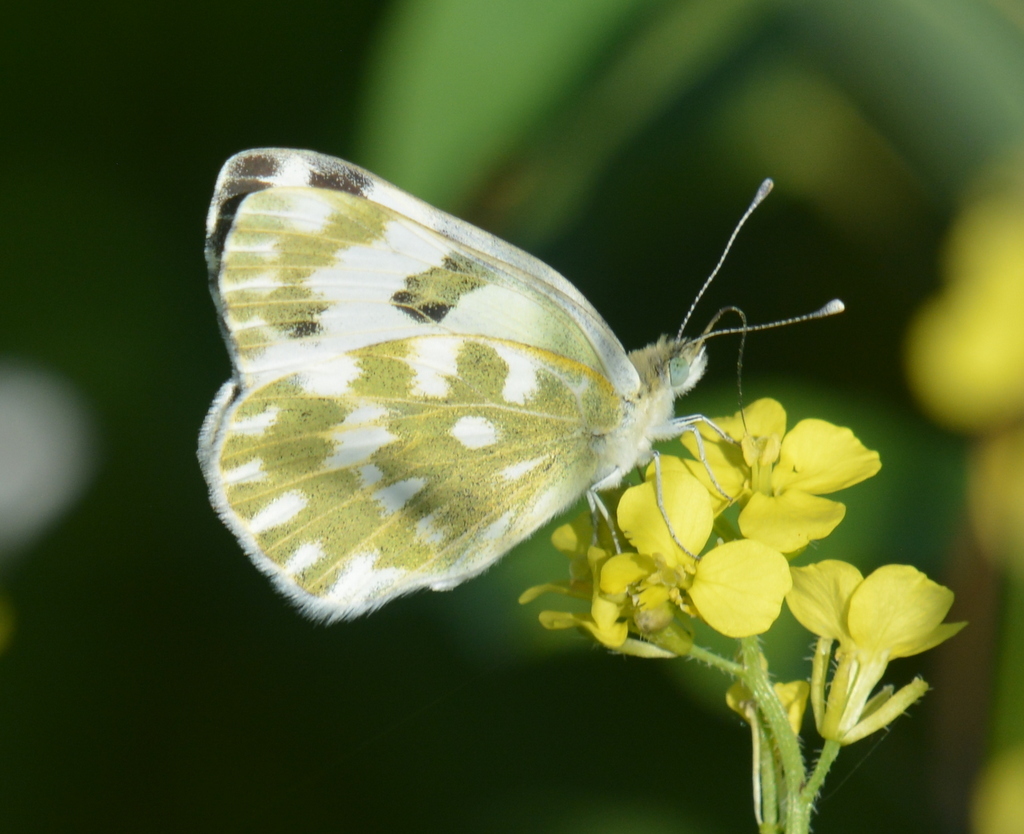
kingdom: Animalia
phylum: Arthropoda
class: Insecta
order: Lepidoptera
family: Pieridae
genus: Pontia
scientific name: Pontia edusa
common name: Eastern bath white
